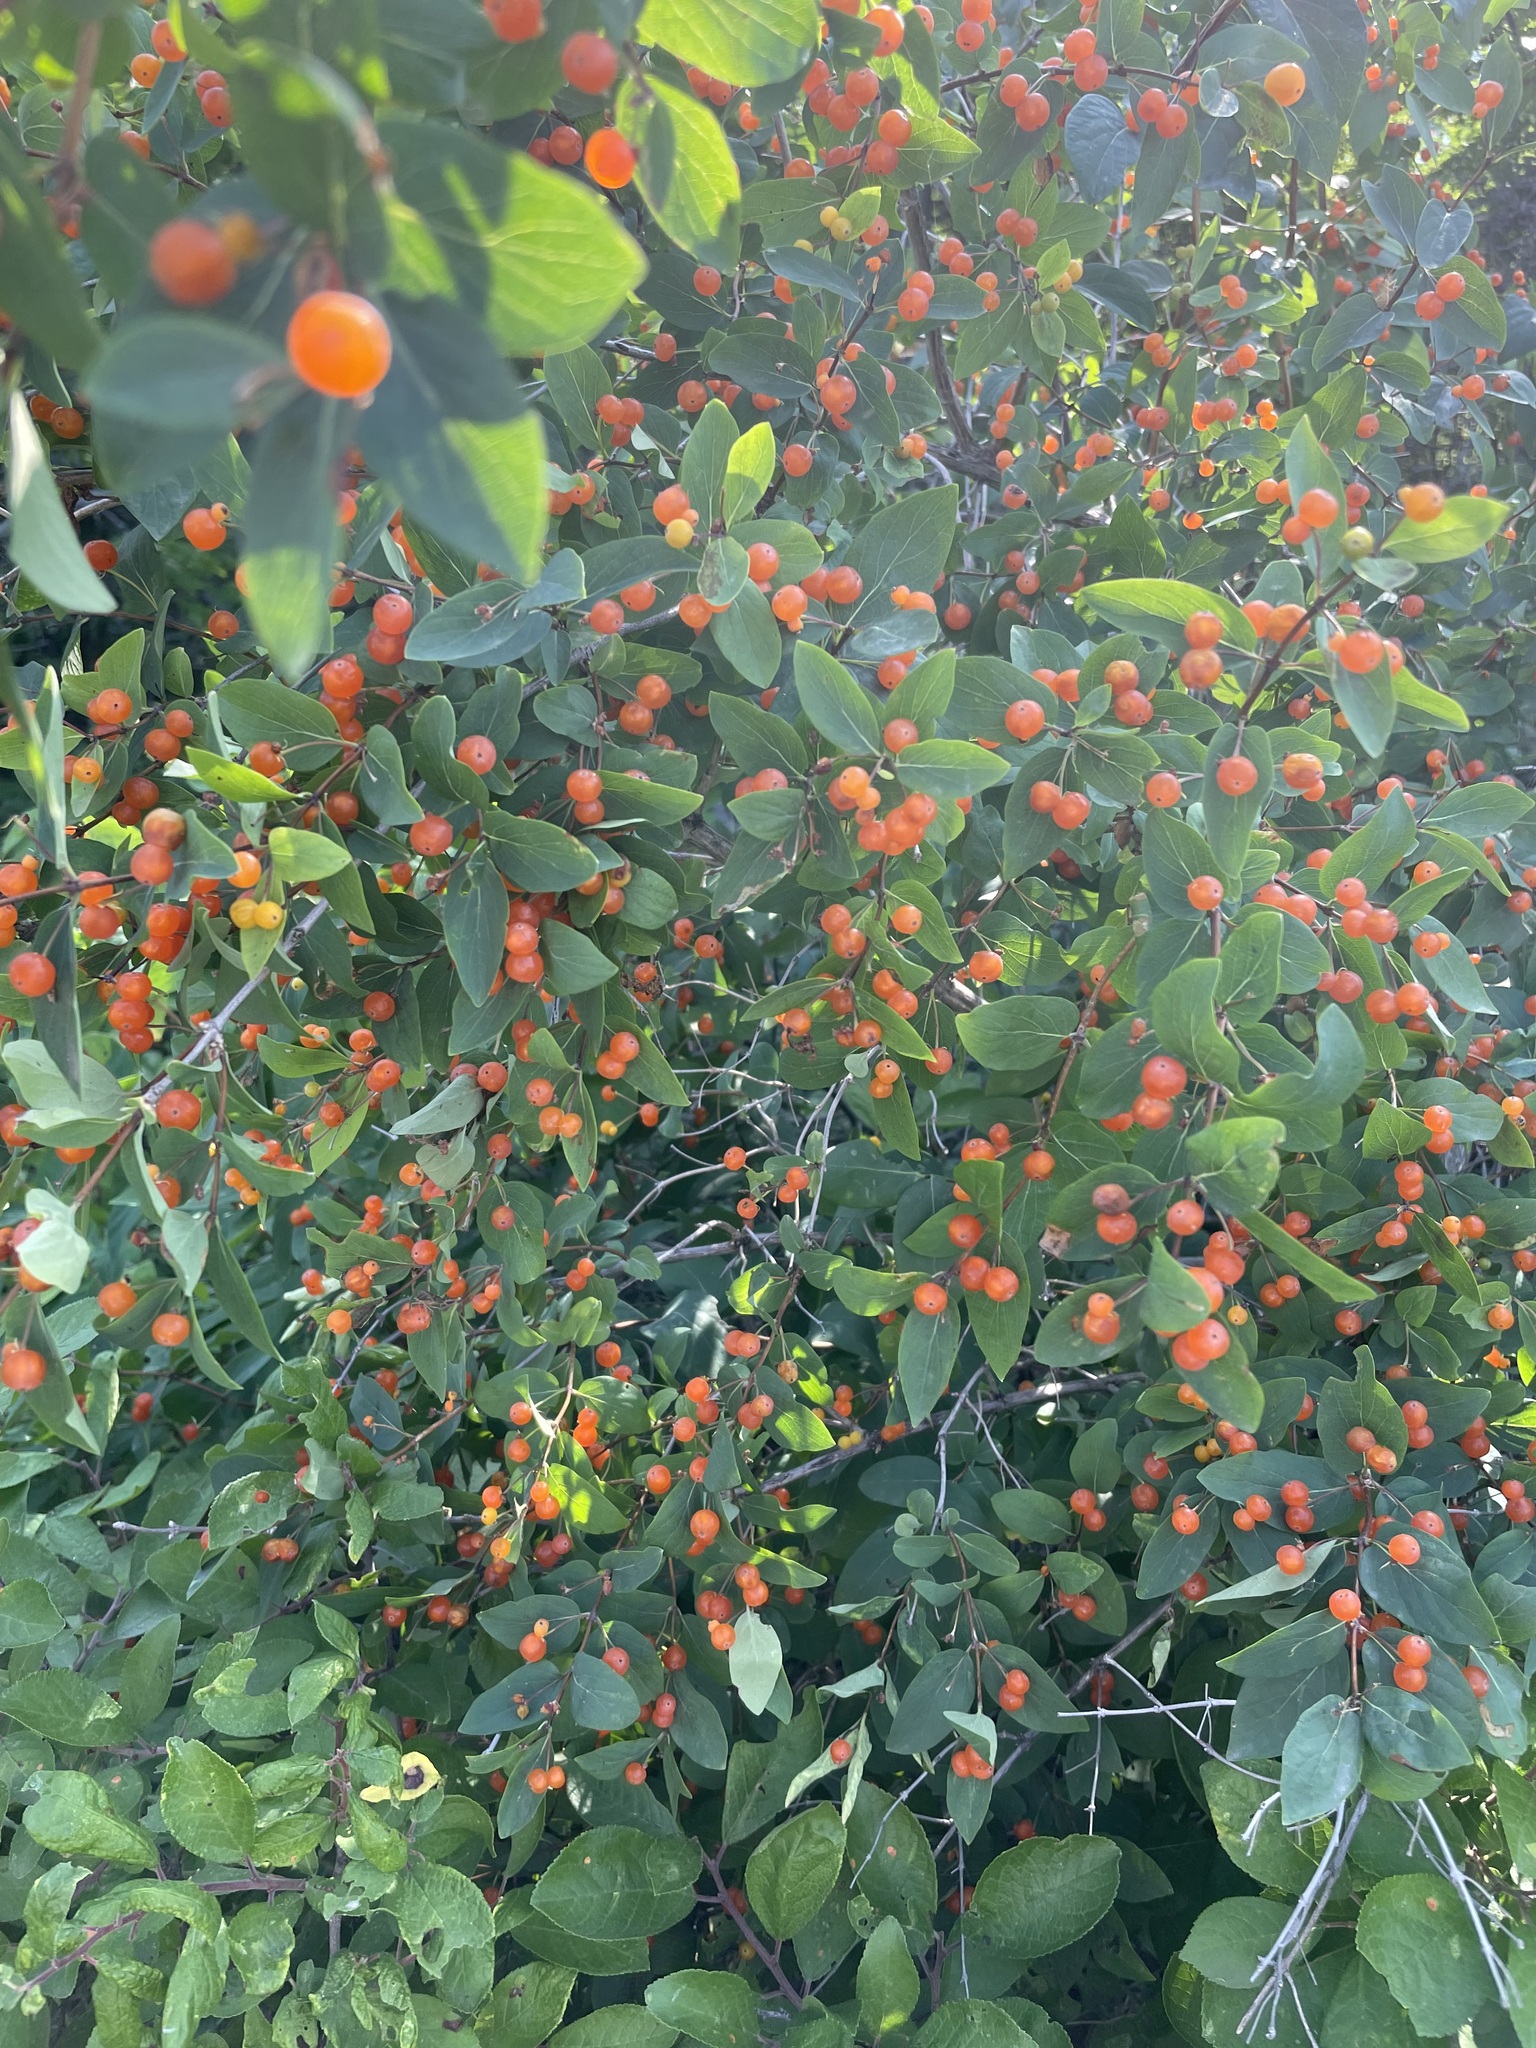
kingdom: Plantae
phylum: Tracheophyta
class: Magnoliopsida
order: Dipsacales
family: Caprifoliaceae
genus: Lonicera
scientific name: Lonicera tatarica
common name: Tatarian honeysuckle
